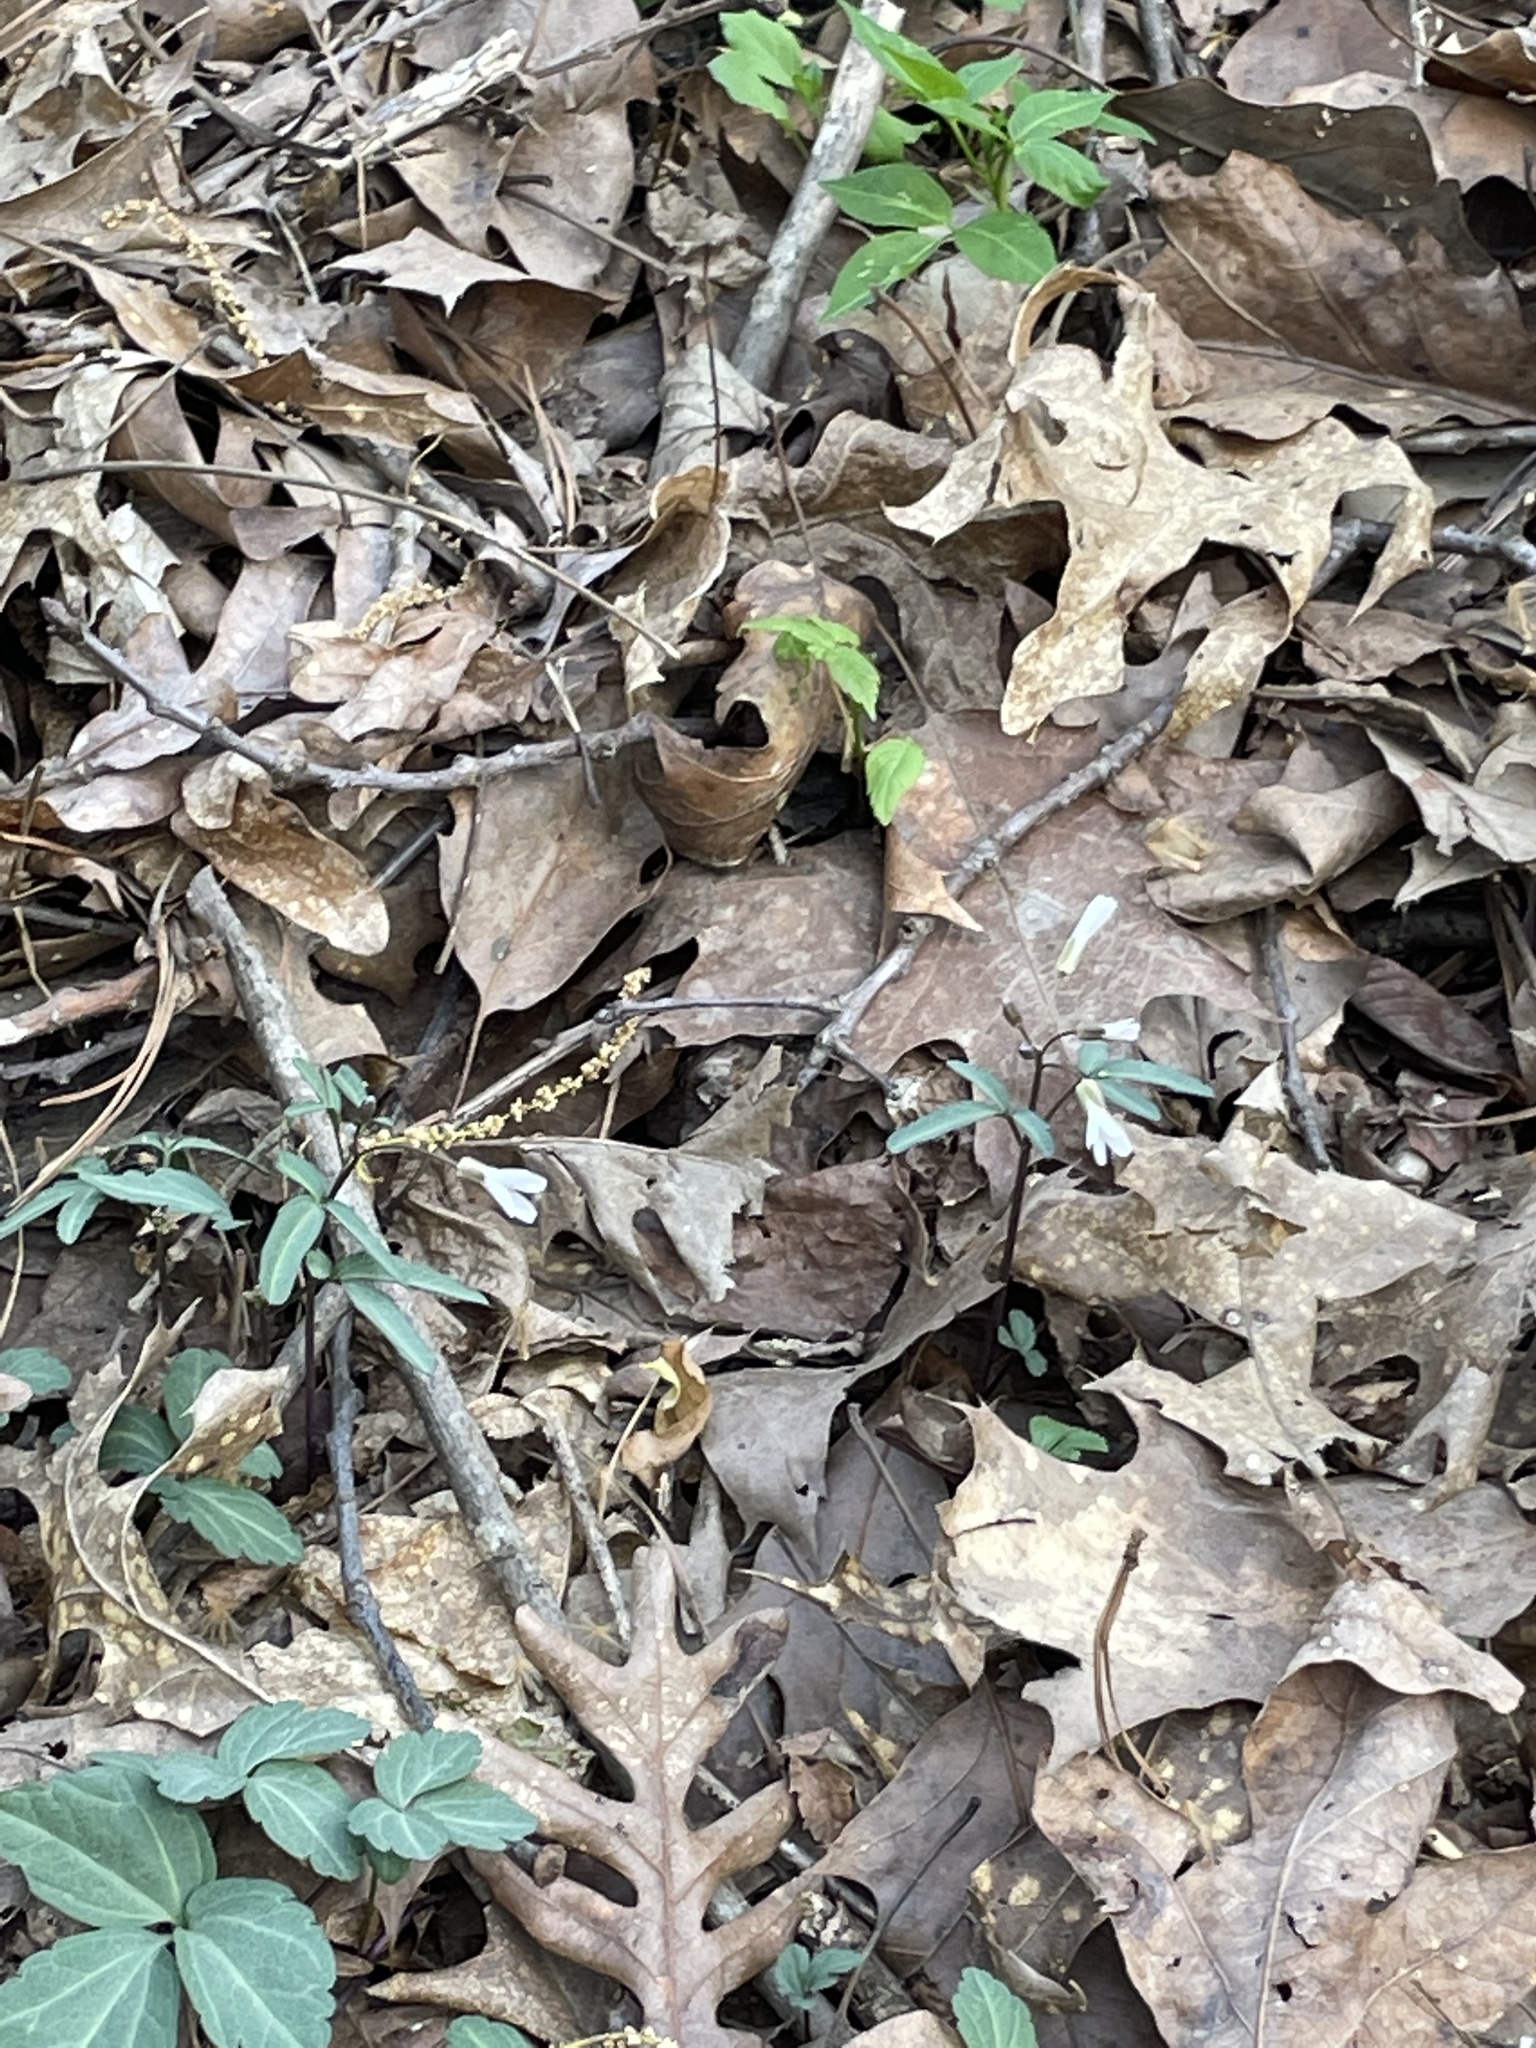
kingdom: Plantae
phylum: Tracheophyta
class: Magnoliopsida
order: Brassicales
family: Brassicaceae
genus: Cardamine
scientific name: Cardamine angustata
